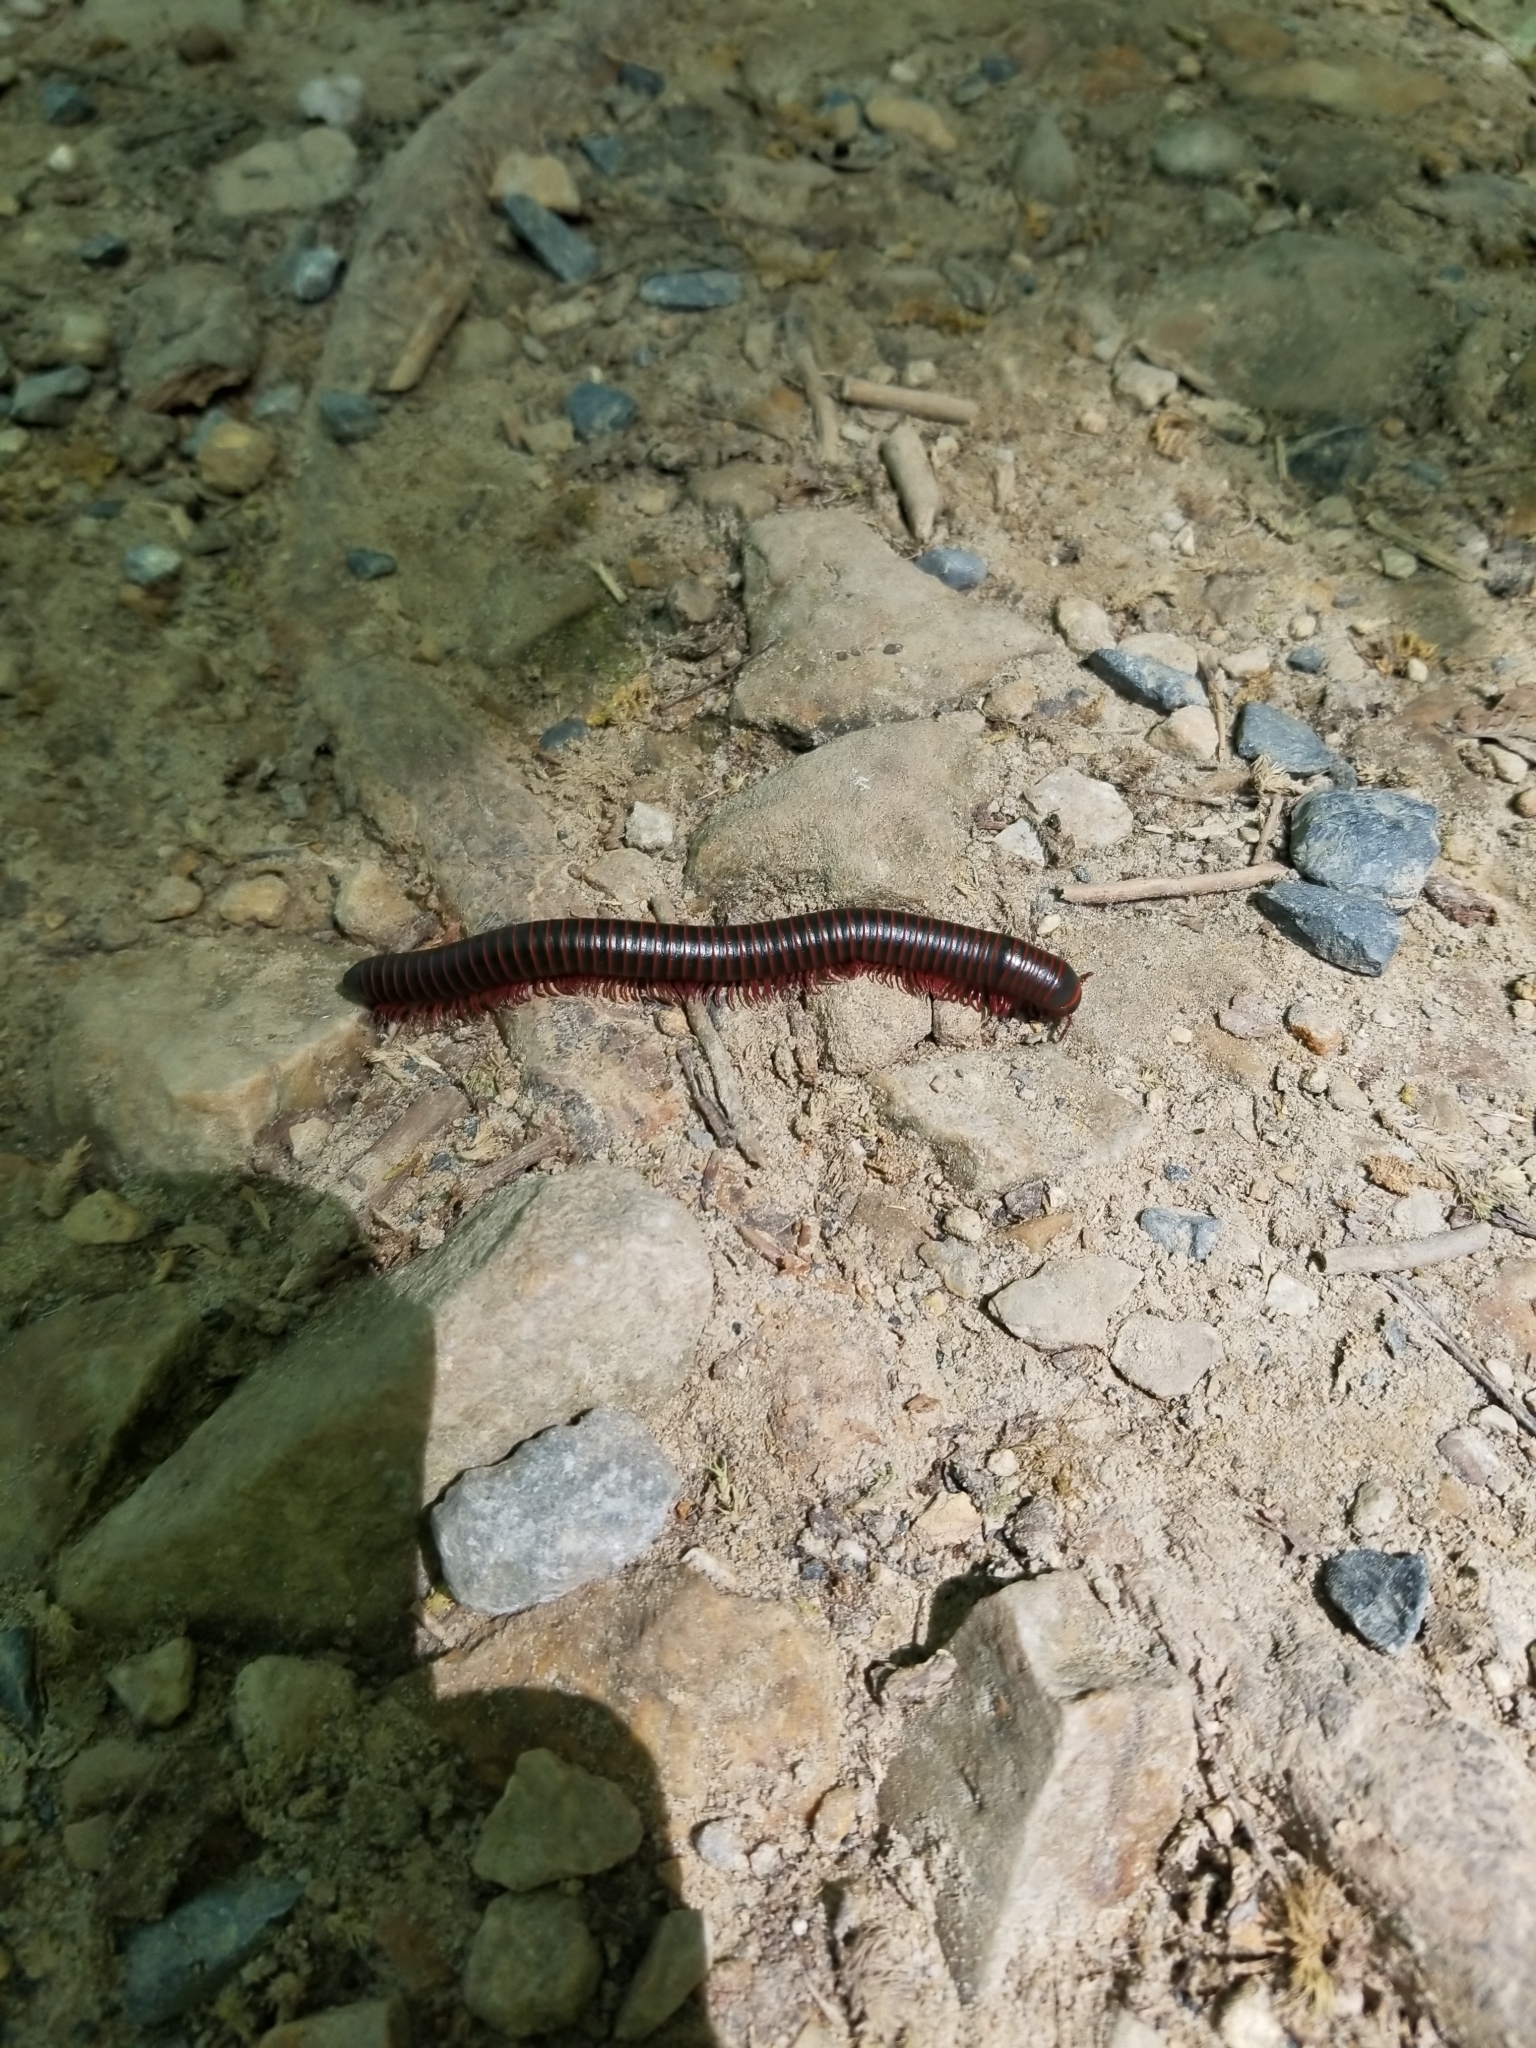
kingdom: Animalia
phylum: Arthropoda
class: Diplopoda
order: Spirobolida
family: Spirobolidae
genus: Narceus
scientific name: Narceus
